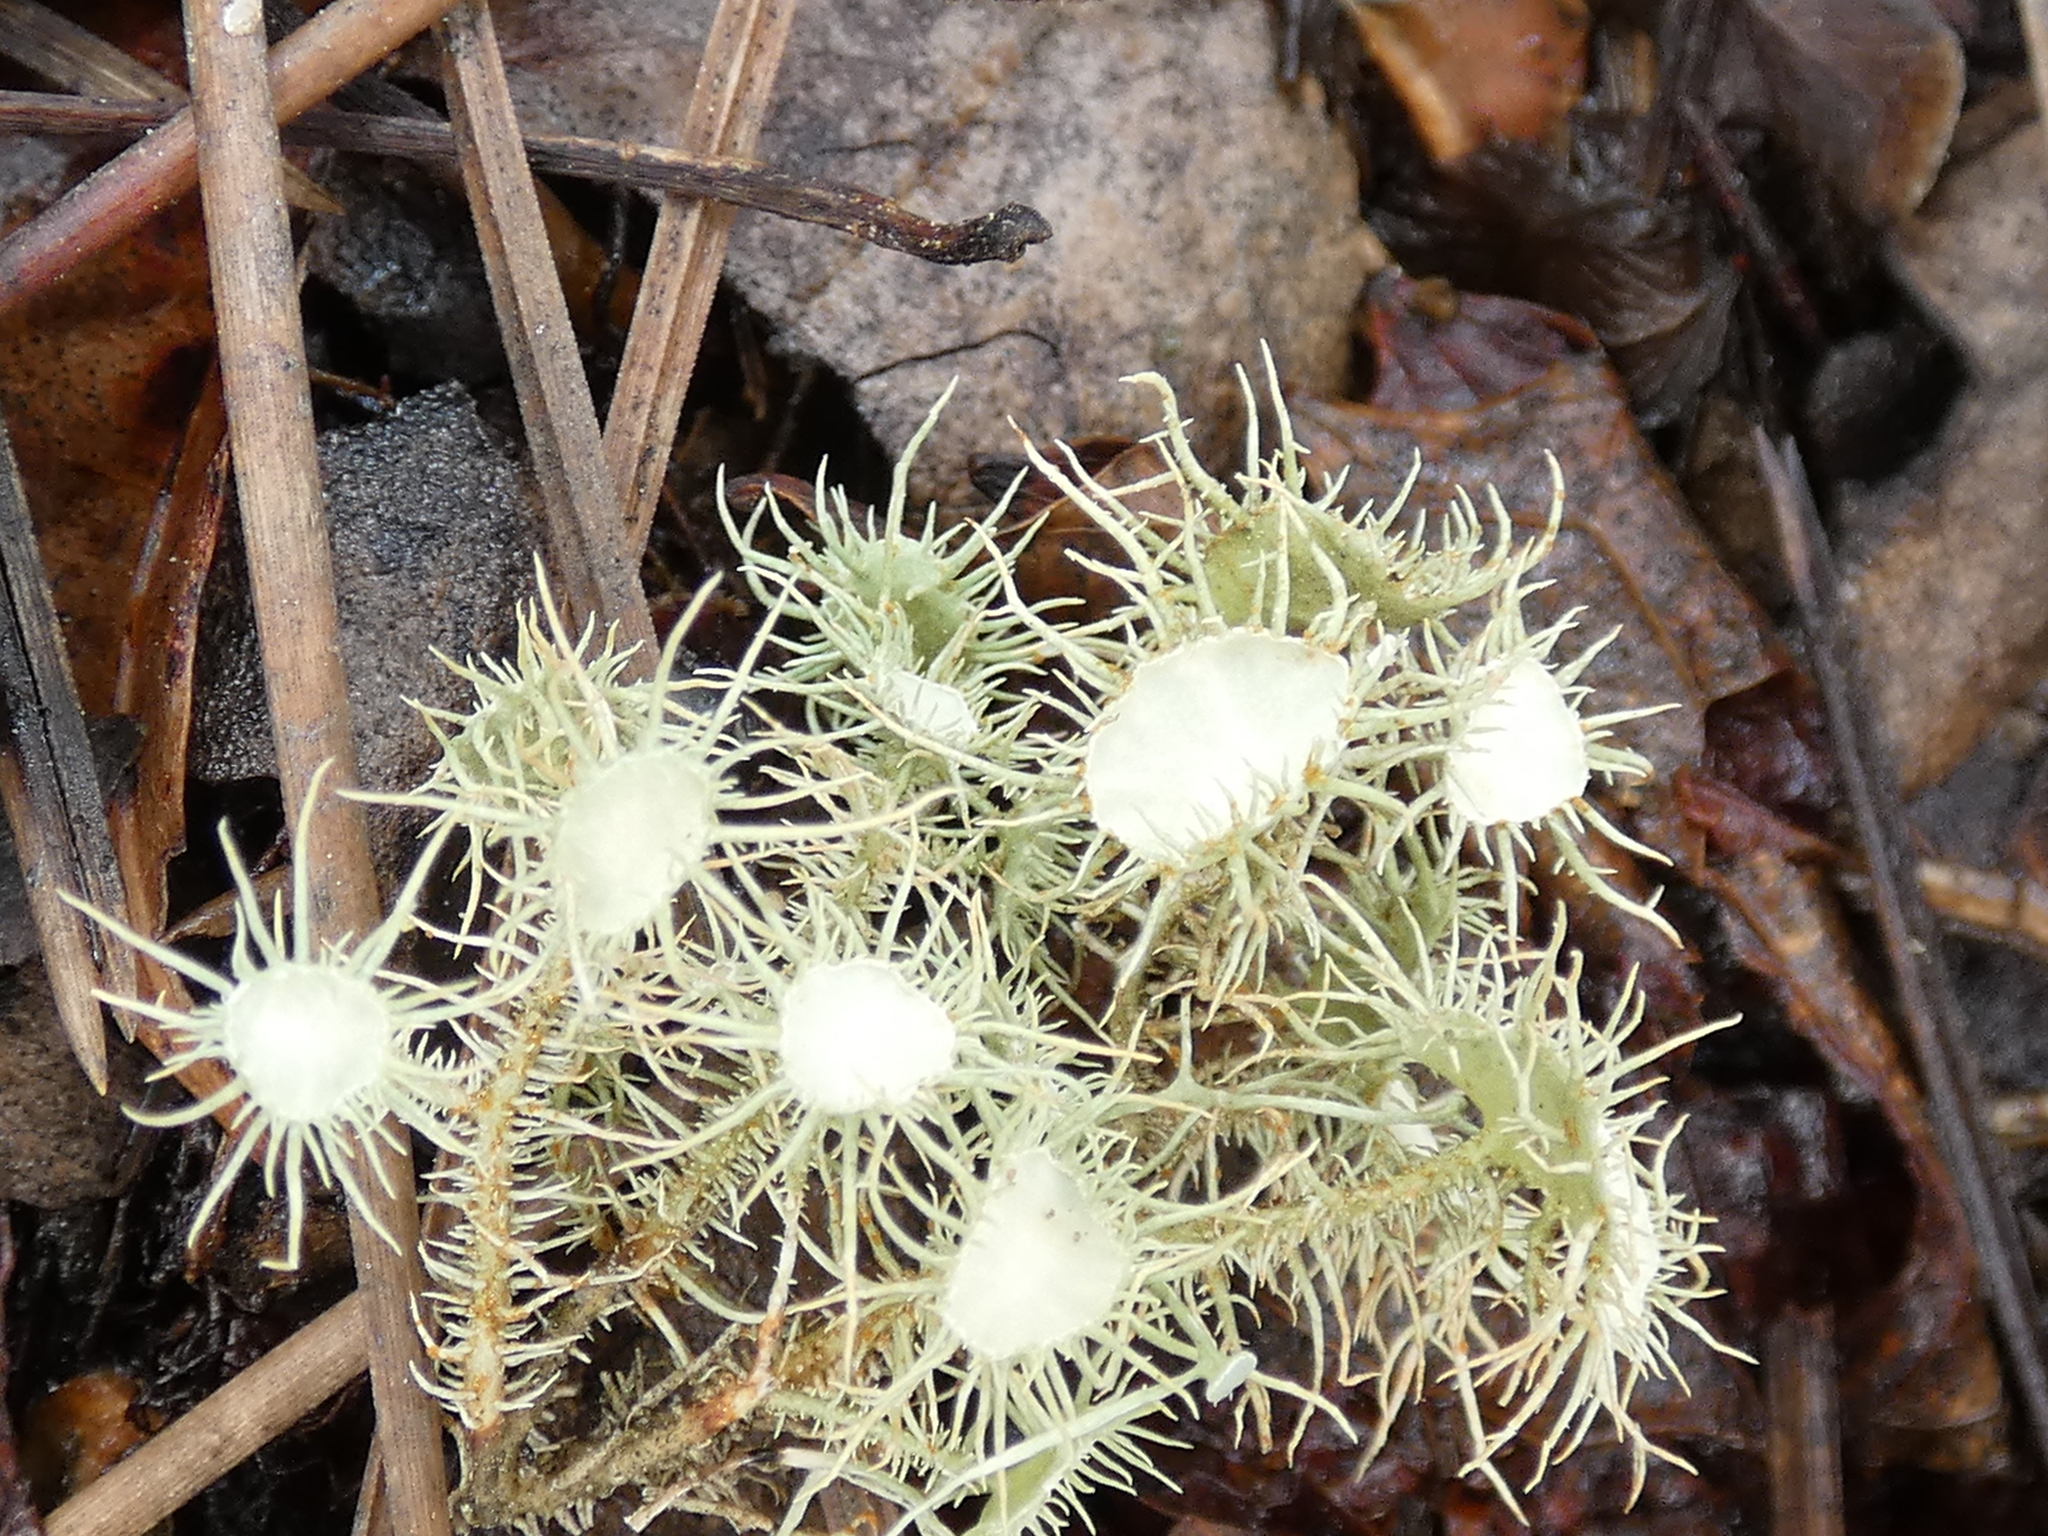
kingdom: Fungi
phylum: Ascomycota
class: Lecanoromycetes
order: Lecanorales
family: Parmeliaceae
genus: Usnea
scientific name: Usnea strigosa
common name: Bushy beard lichen
